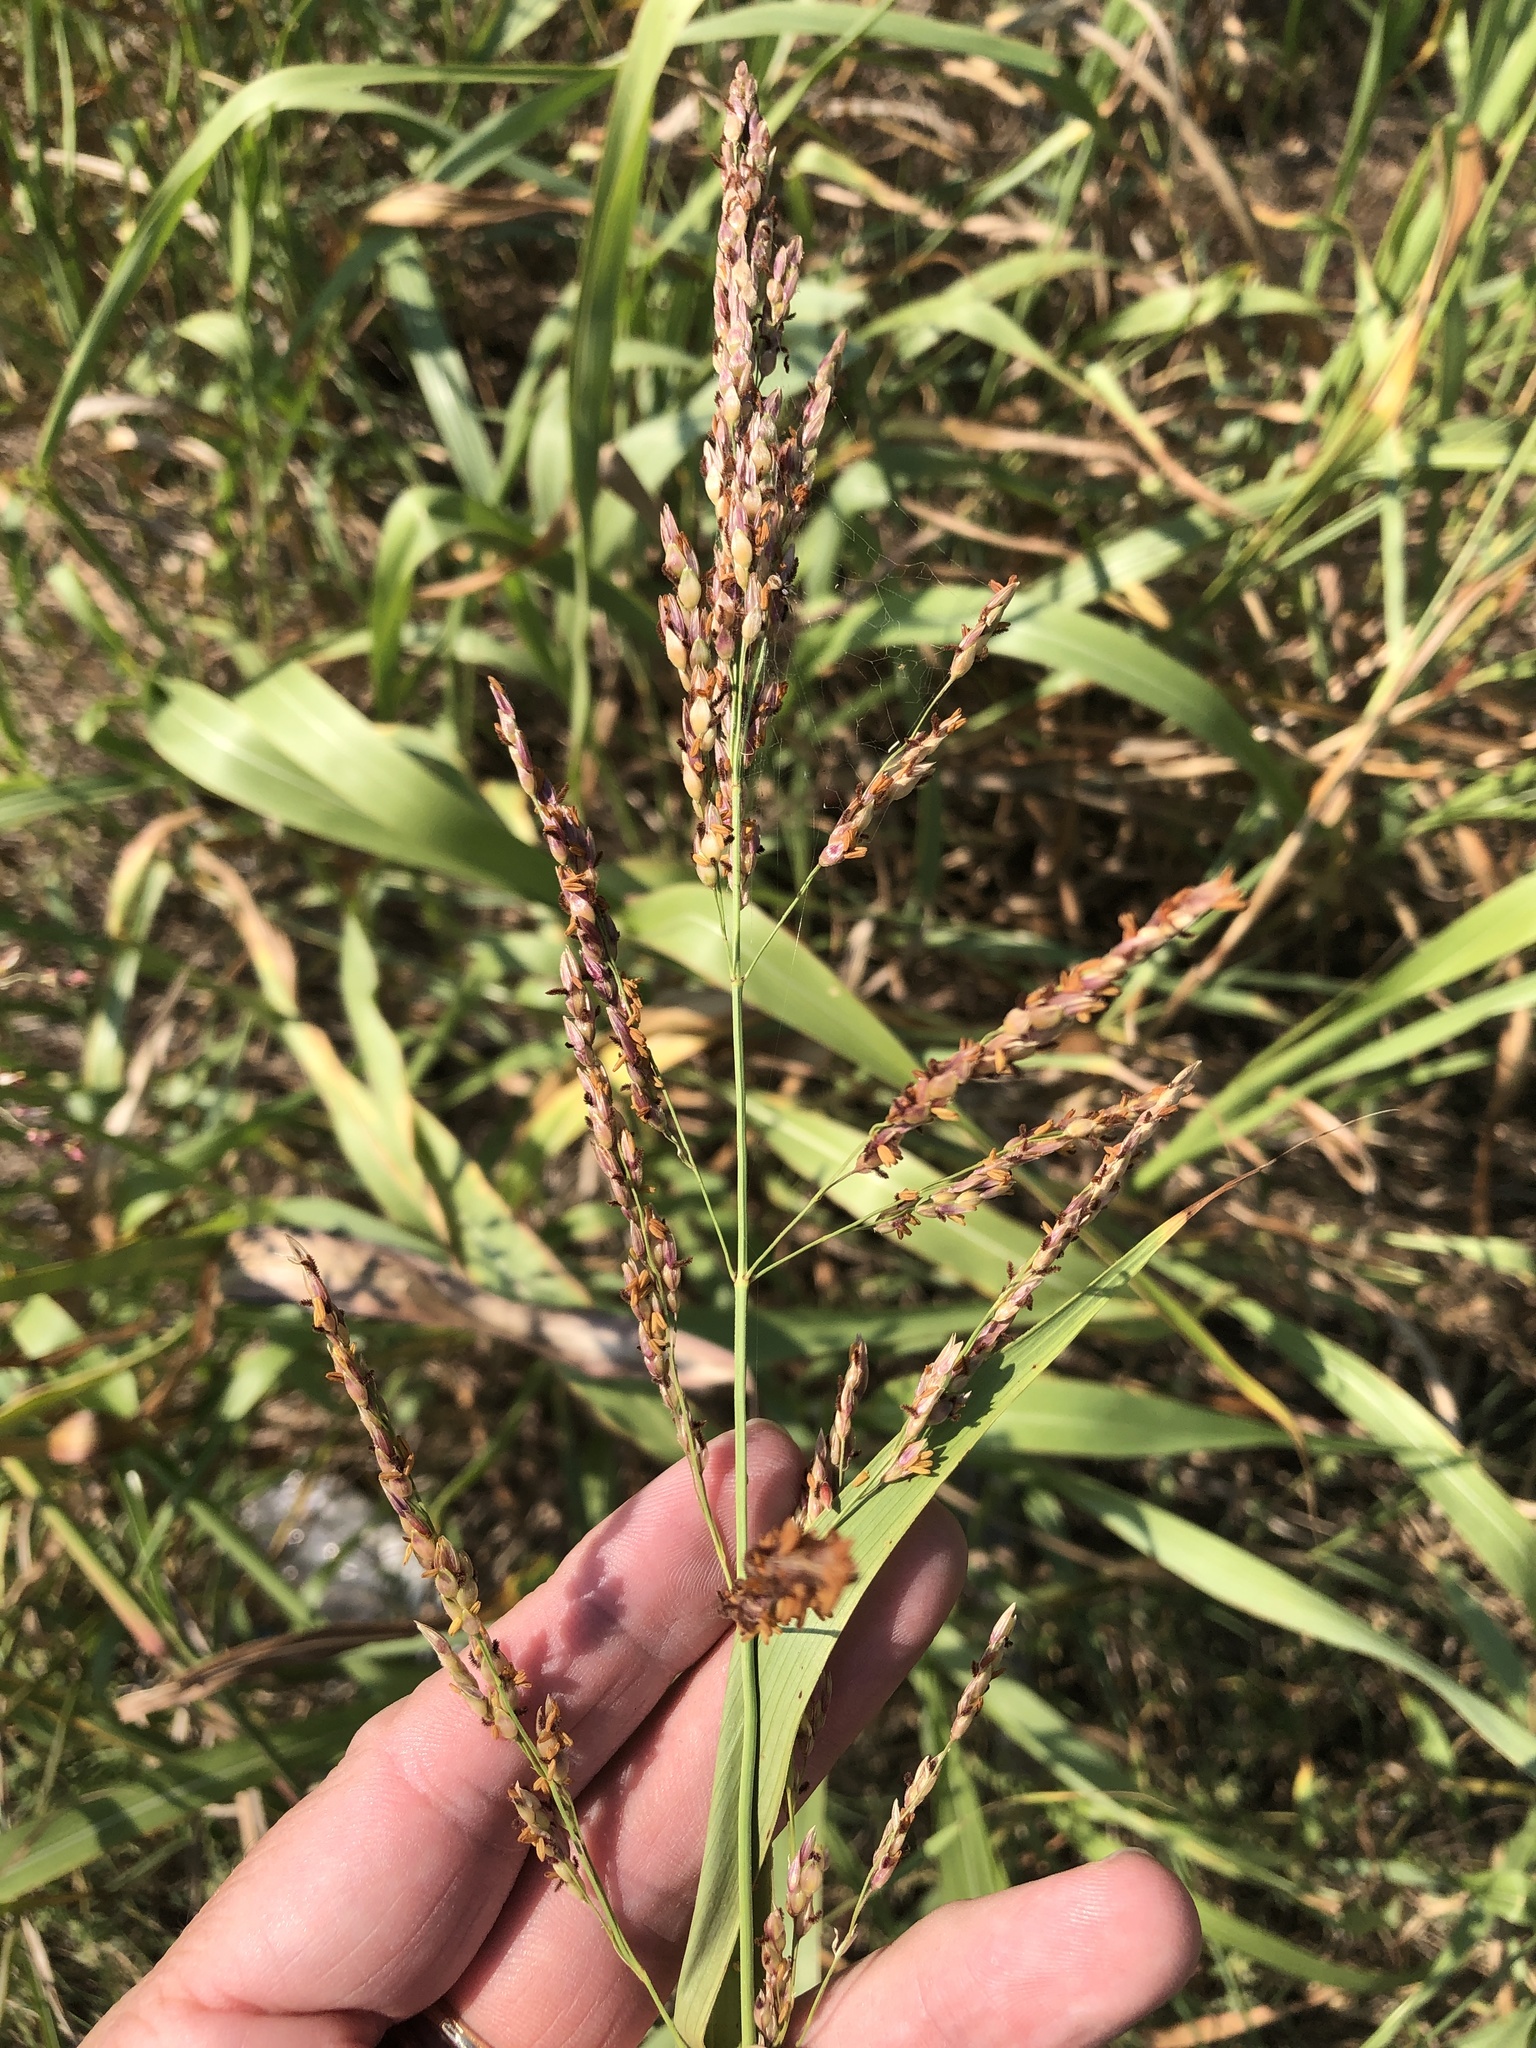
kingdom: Plantae
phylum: Tracheophyta
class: Liliopsida
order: Poales
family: Poaceae
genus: Sorghum
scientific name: Sorghum halepense
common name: Johnson-grass
